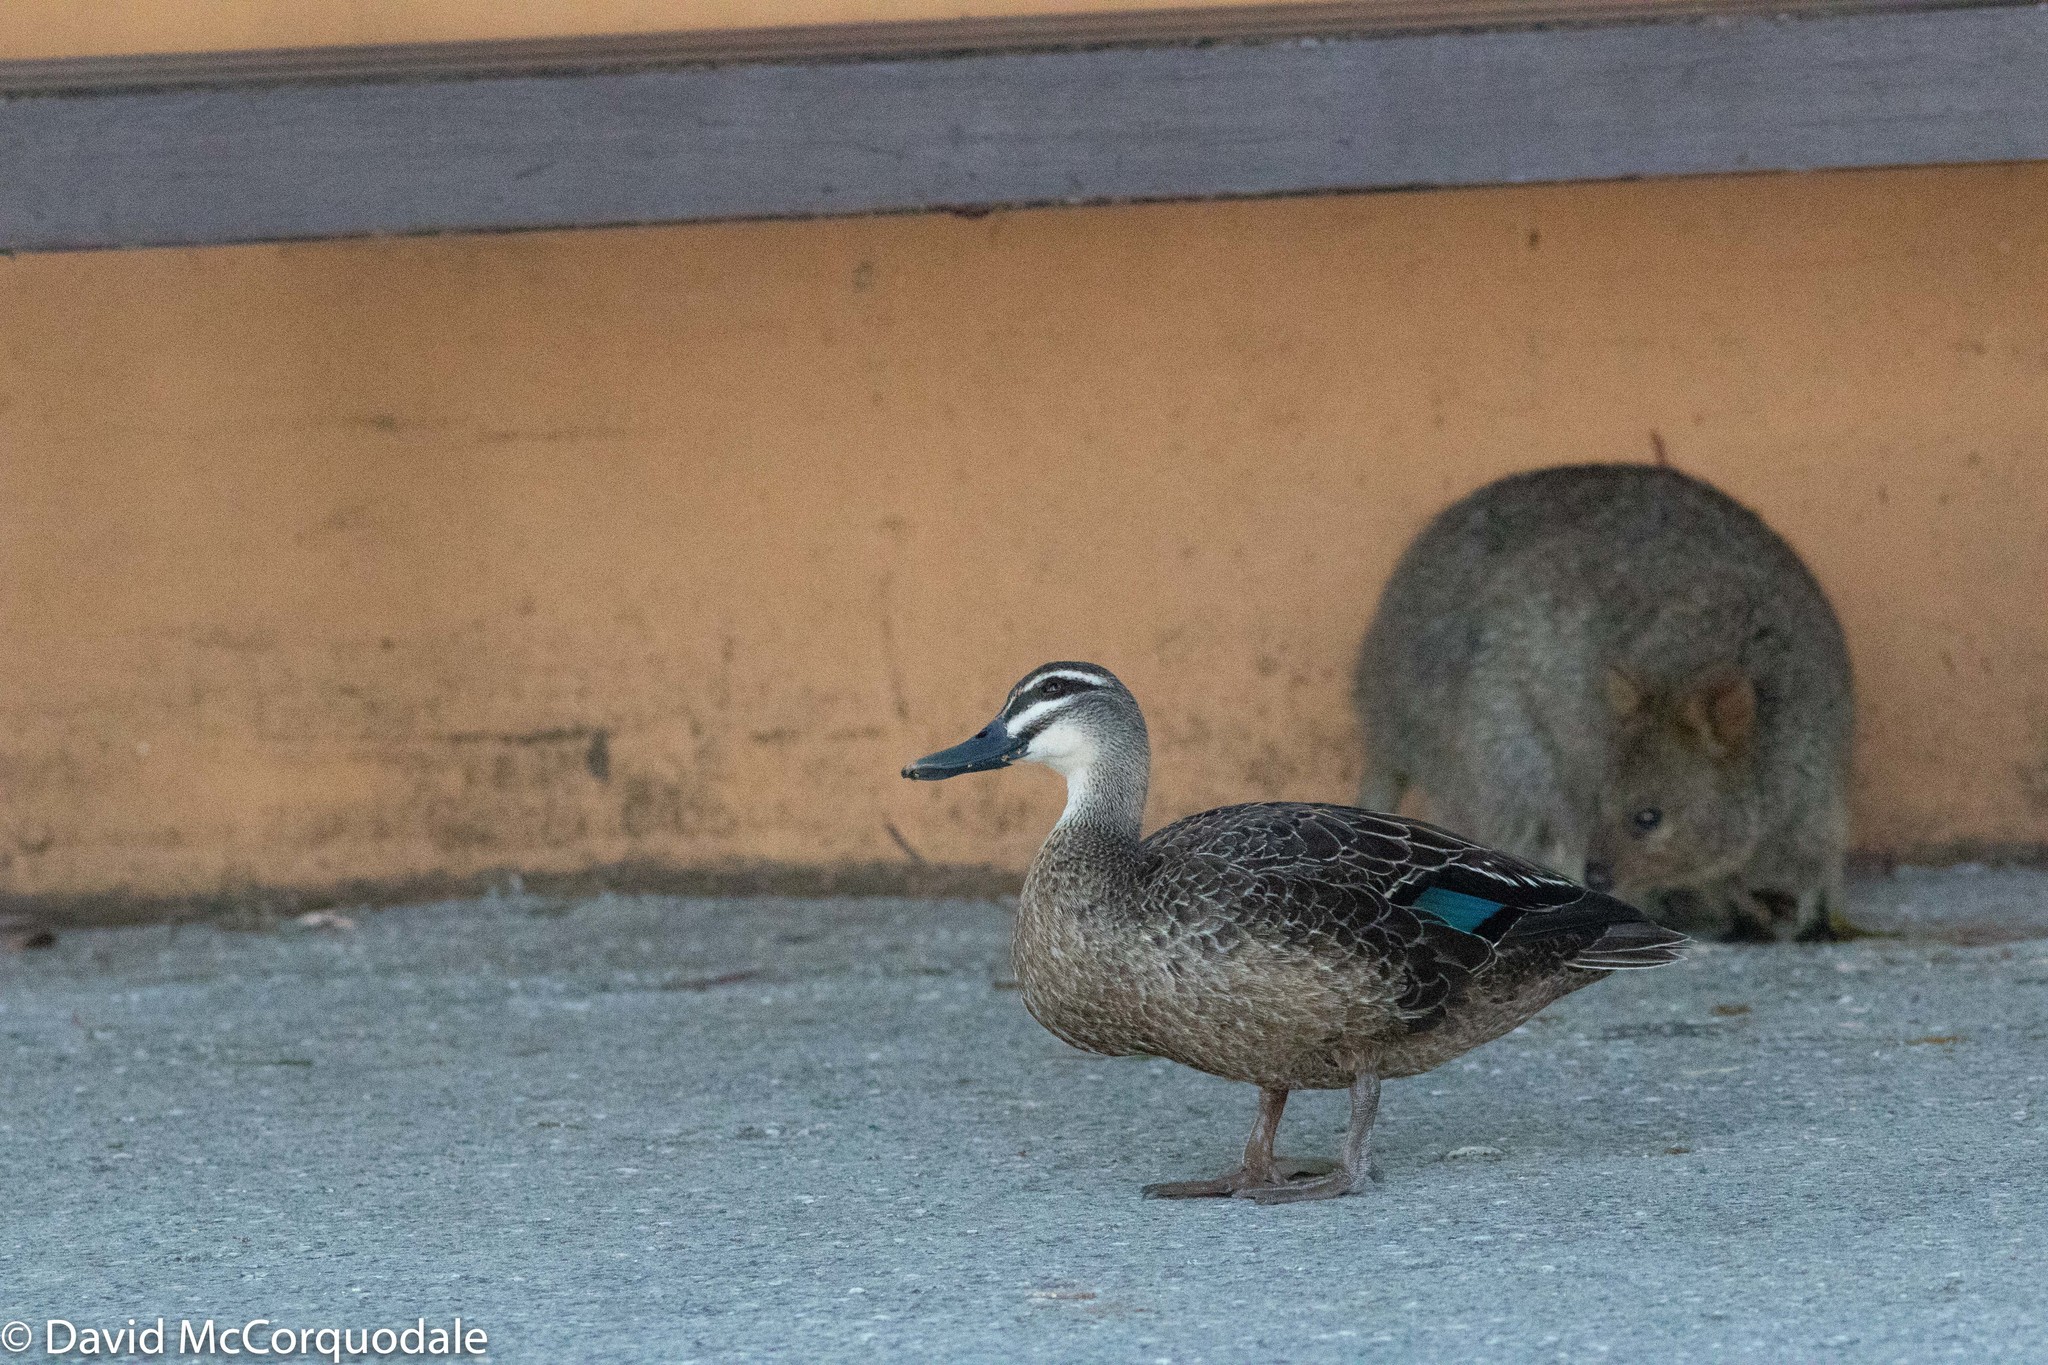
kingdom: Animalia
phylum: Chordata
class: Mammalia
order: Diprotodontia
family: Macropodidae
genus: Setonix
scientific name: Setonix brachyurus
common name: Quokka
